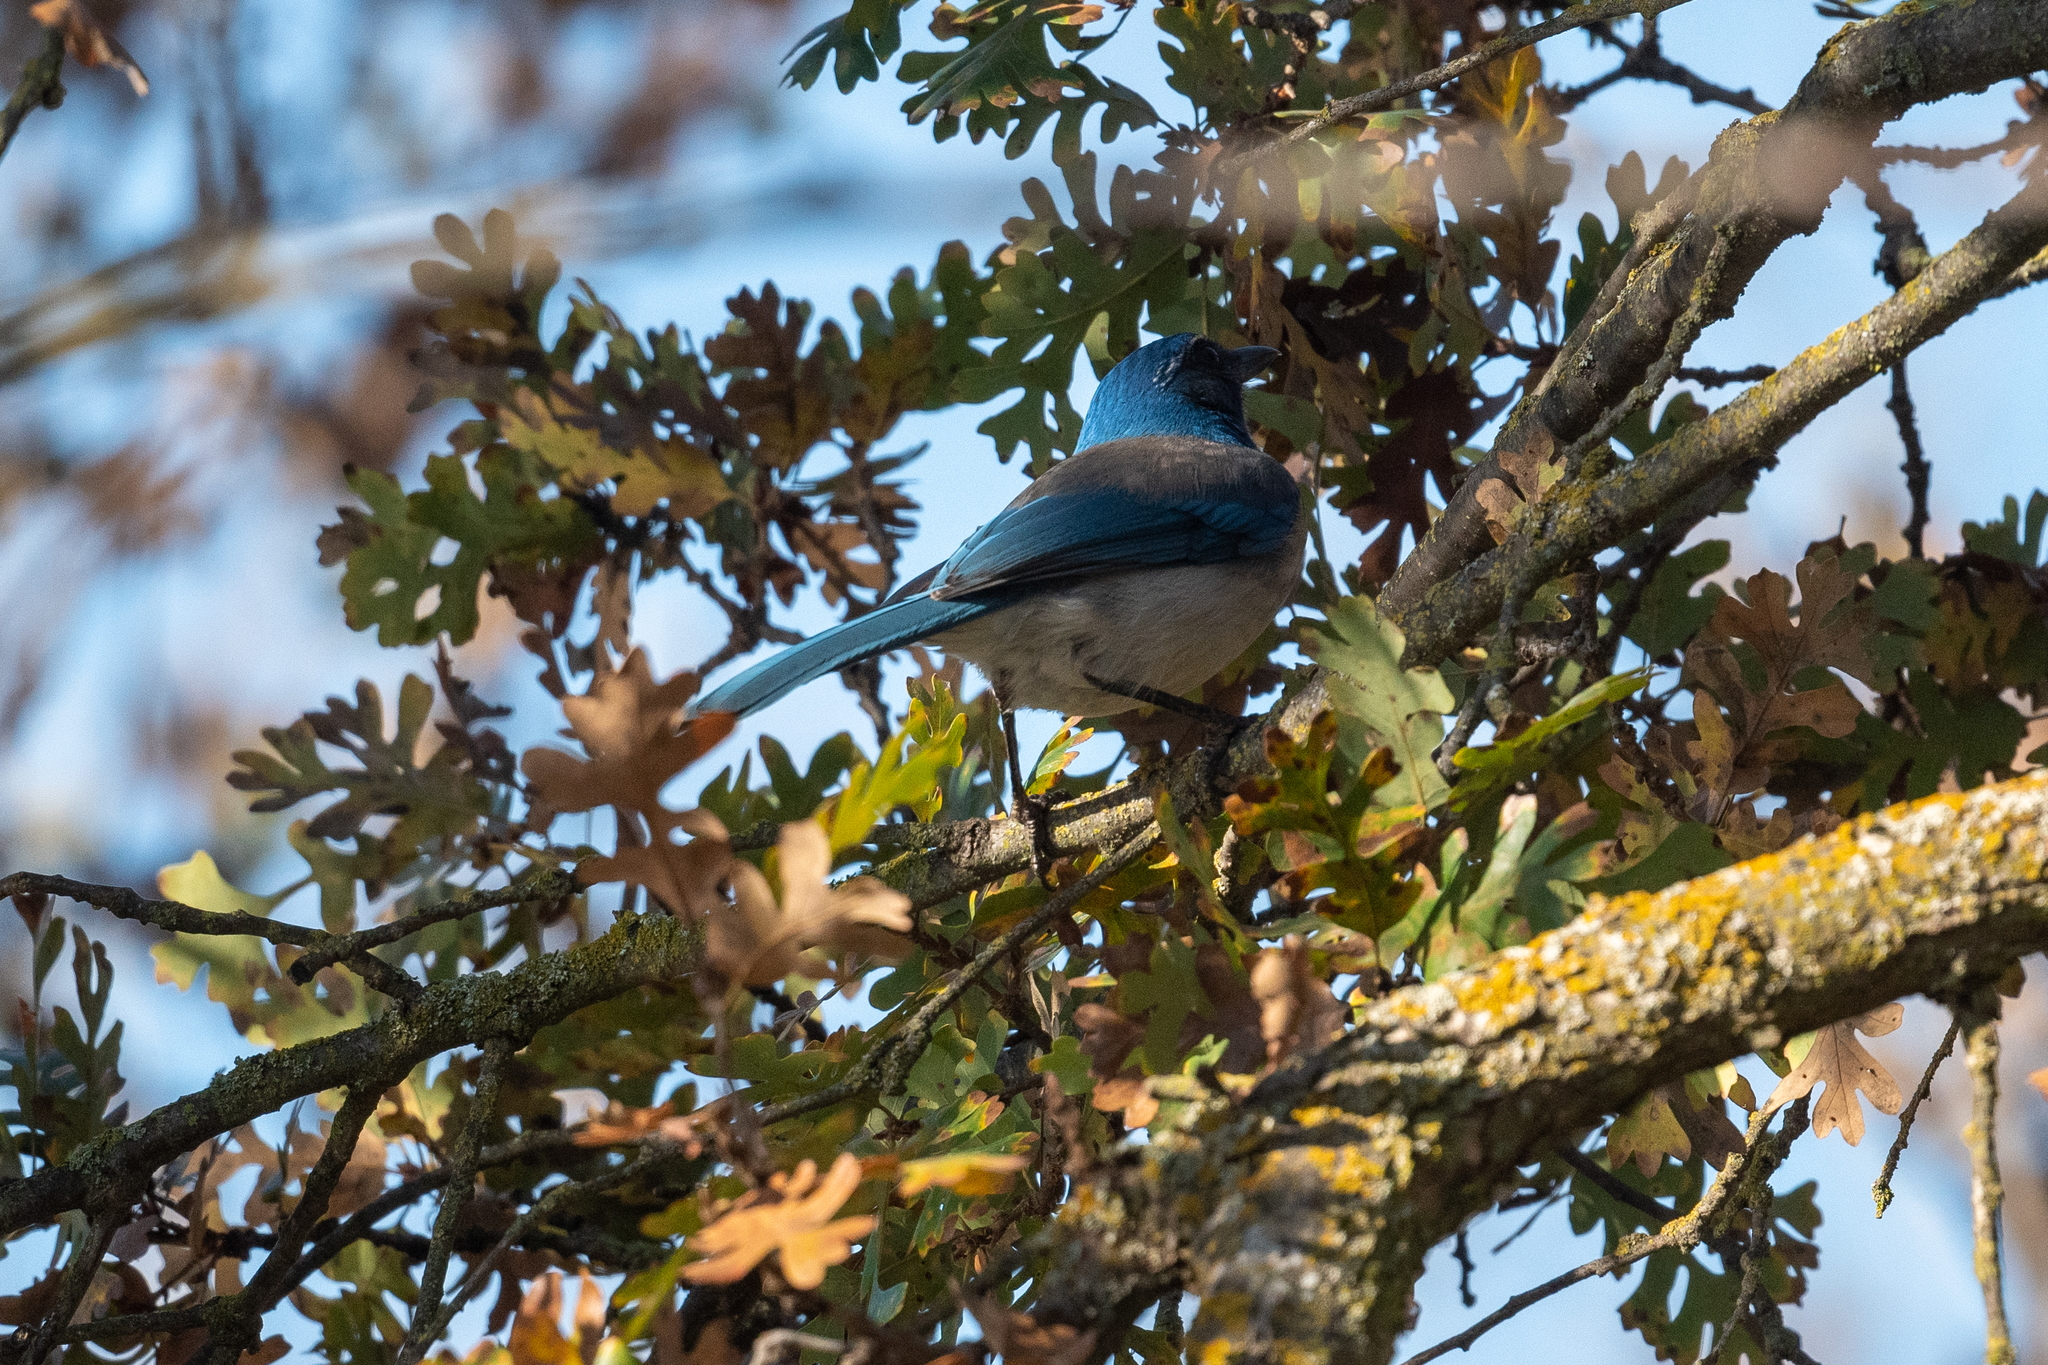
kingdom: Animalia
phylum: Chordata
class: Aves
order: Passeriformes
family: Corvidae
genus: Aphelocoma
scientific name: Aphelocoma californica
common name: California scrub-jay
